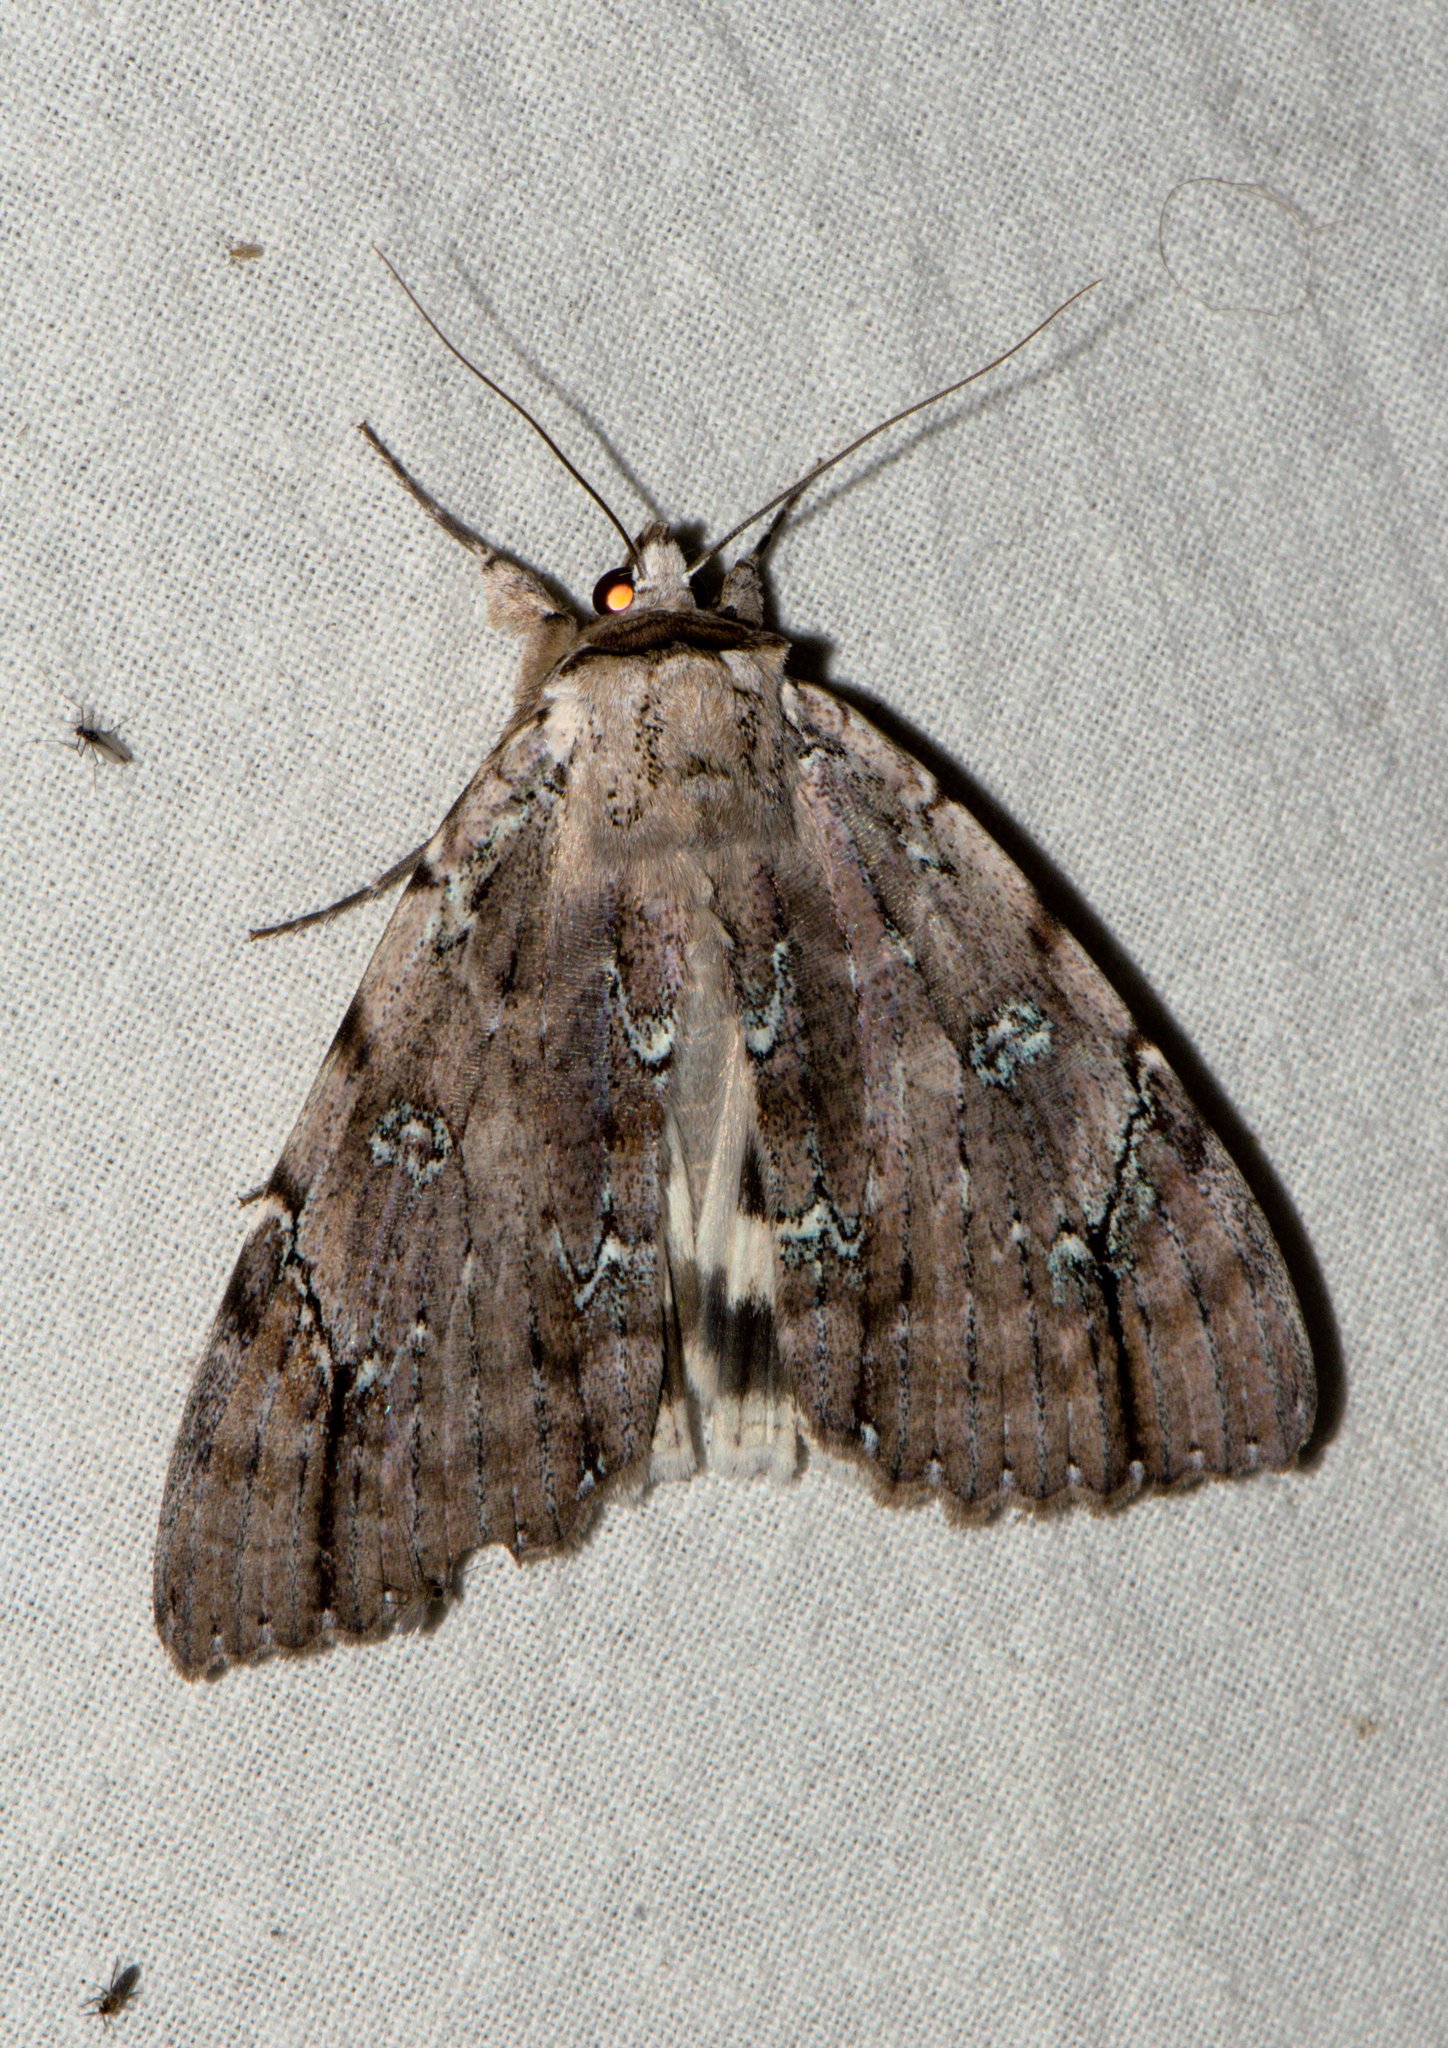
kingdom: Animalia
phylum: Arthropoda
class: Insecta
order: Lepidoptera
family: Erebidae
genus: Catocala
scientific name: Catocala nivea
